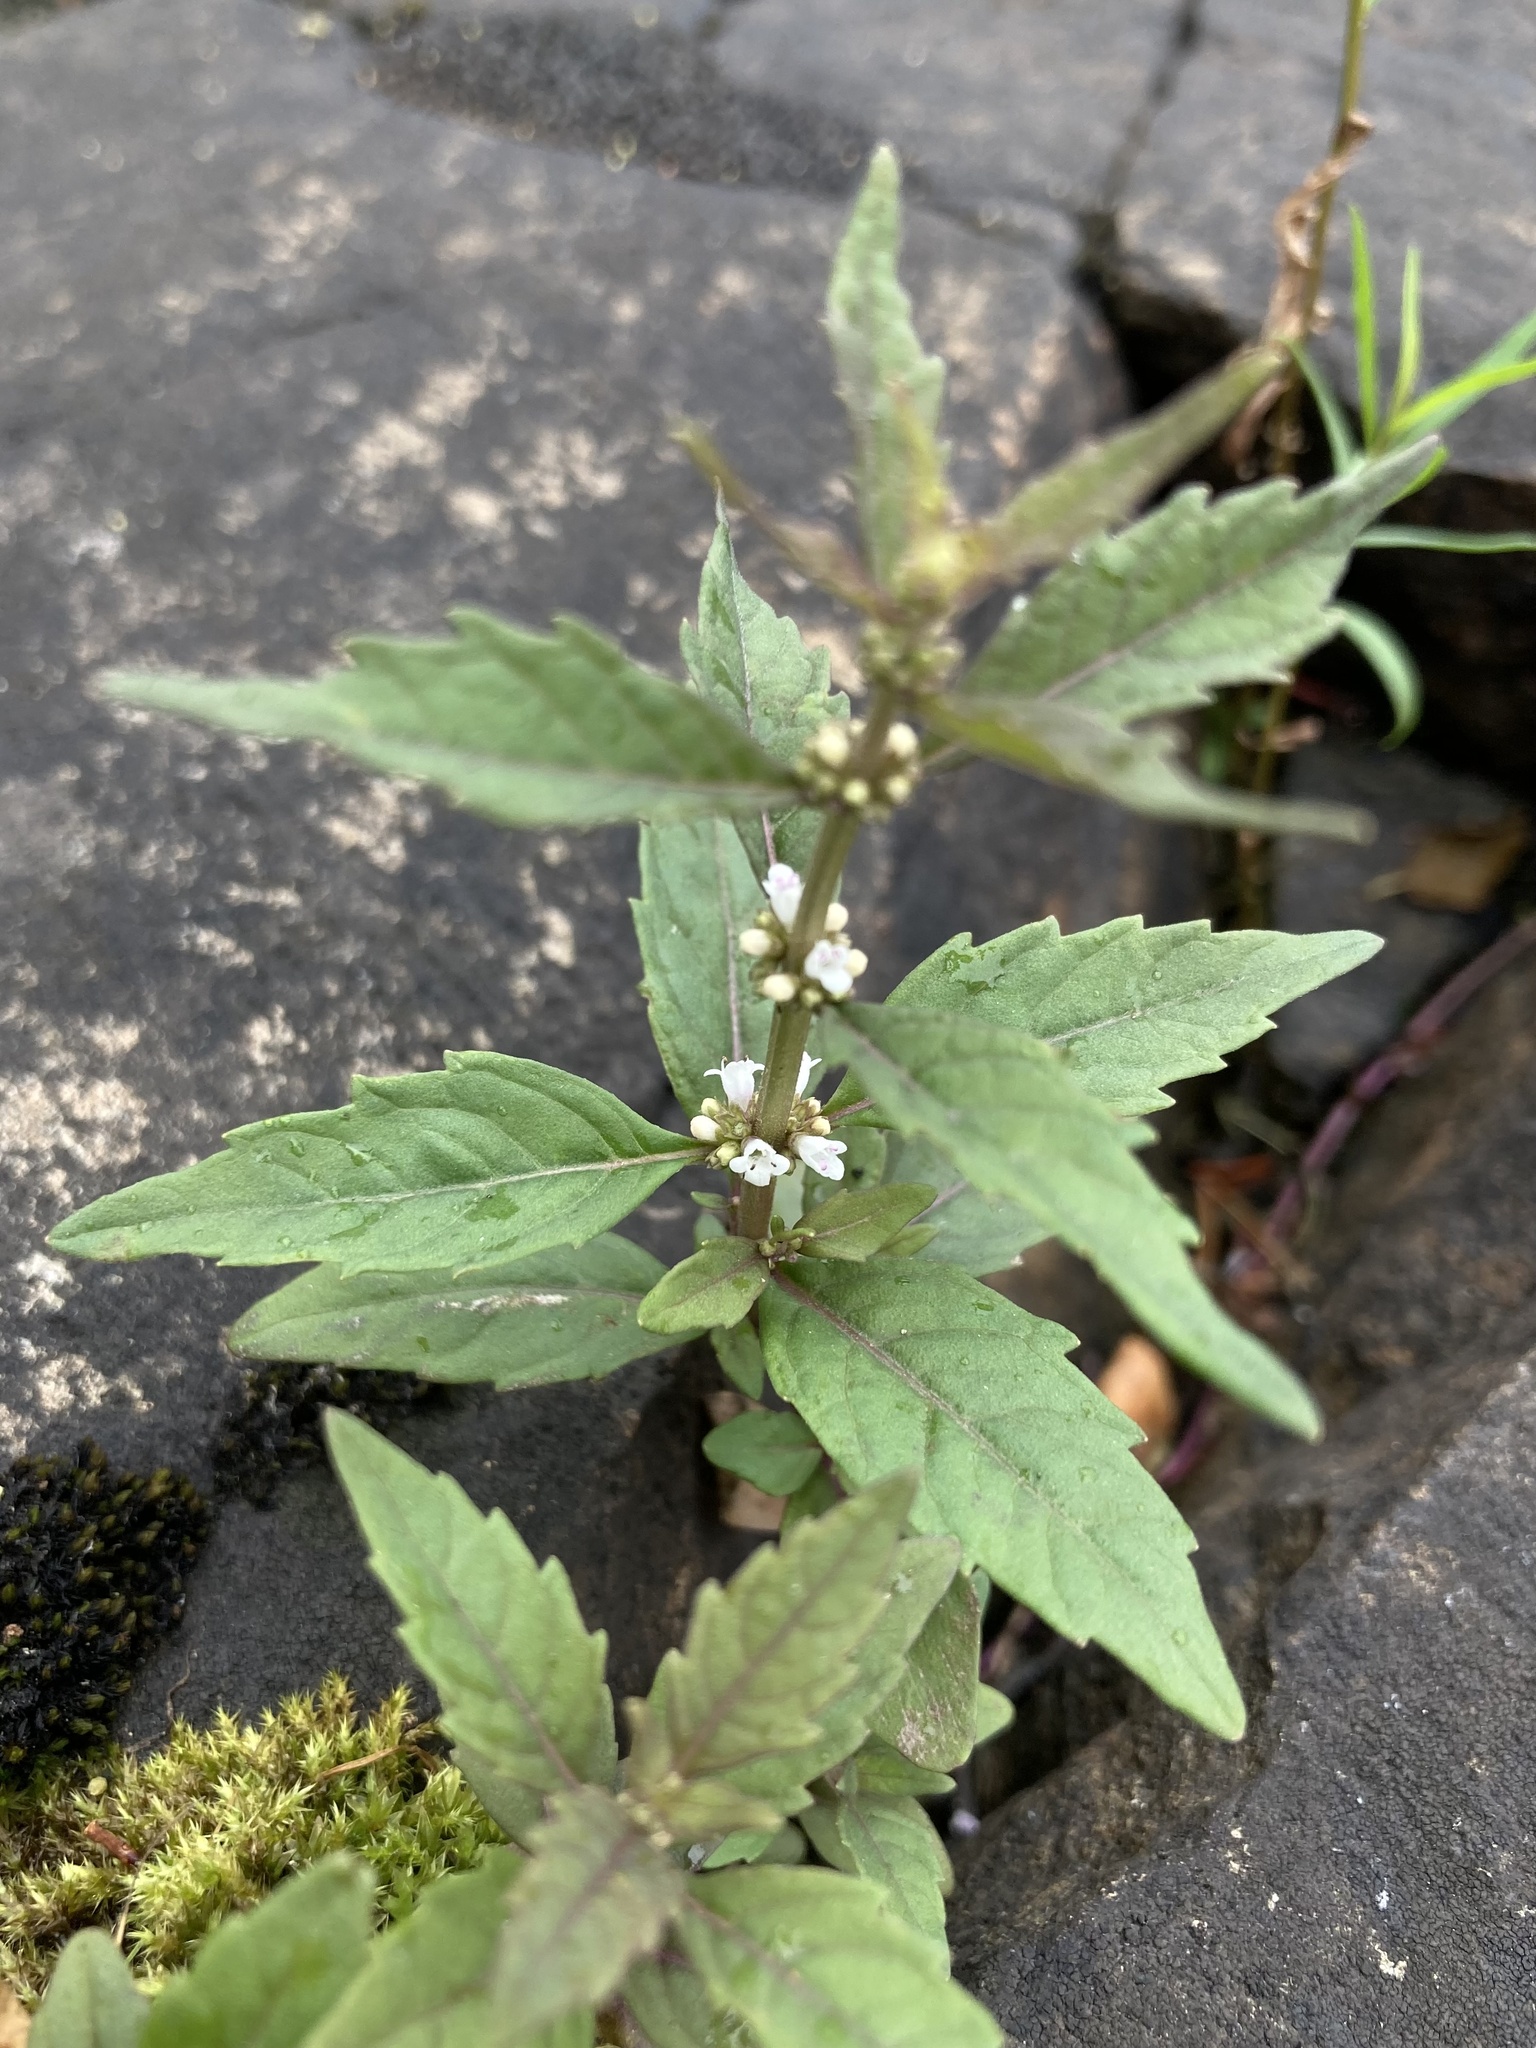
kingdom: Plantae
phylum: Tracheophyta
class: Magnoliopsida
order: Lamiales
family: Lamiaceae
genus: Lycopus
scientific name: Lycopus uniflorus
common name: Northern bugleweed
